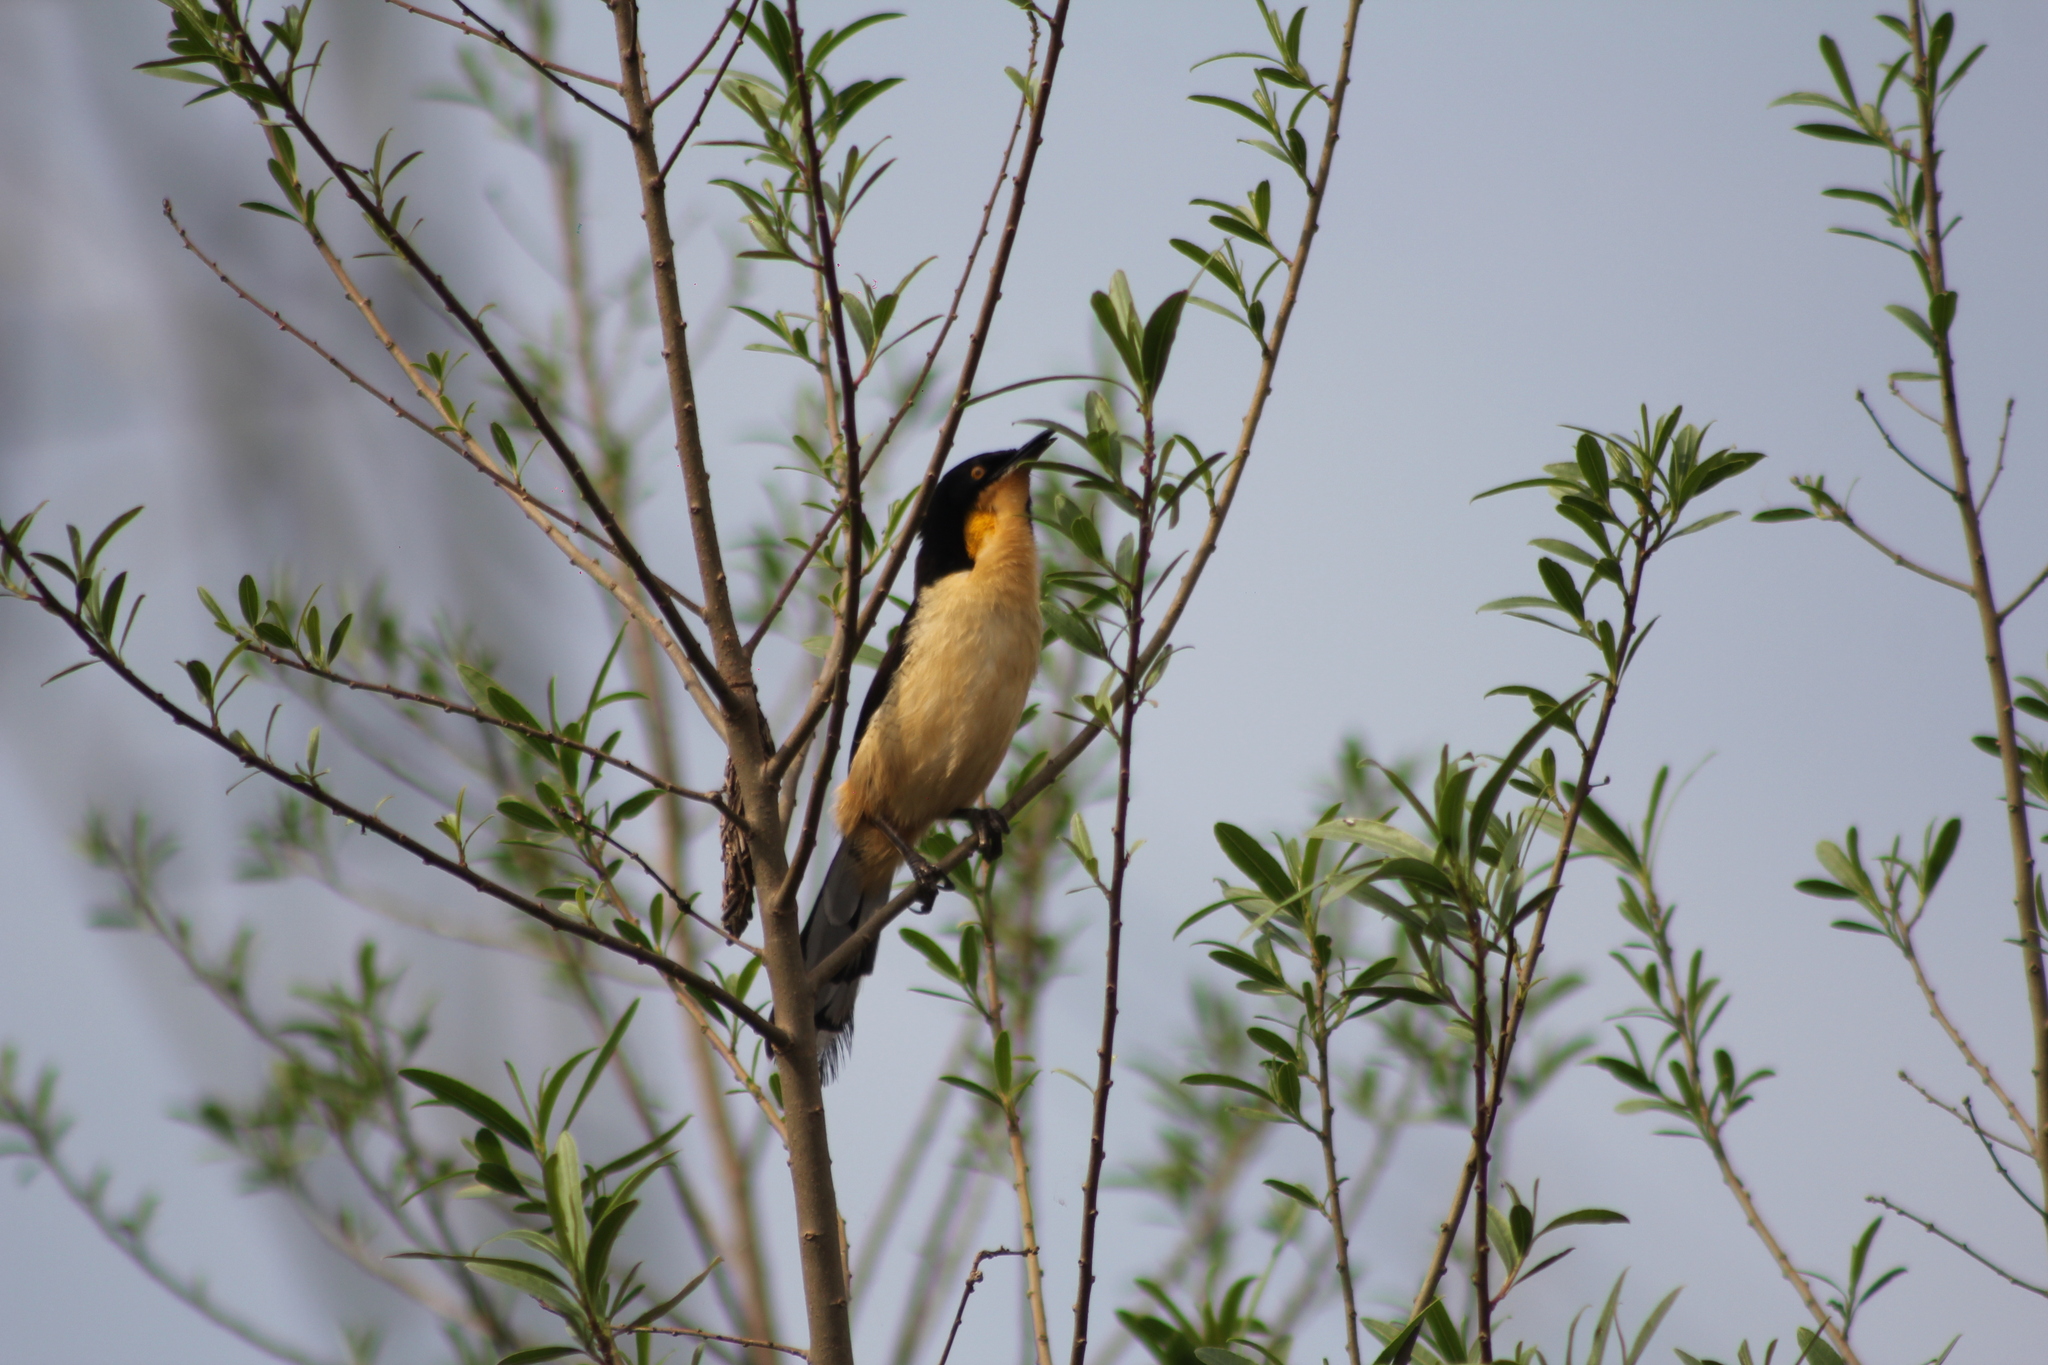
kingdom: Animalia
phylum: Chordata
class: Aves
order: Passeriformes
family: Donacobiidae
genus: Donacobius
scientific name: Donacobius atricapilla
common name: Black-capped donacobius
